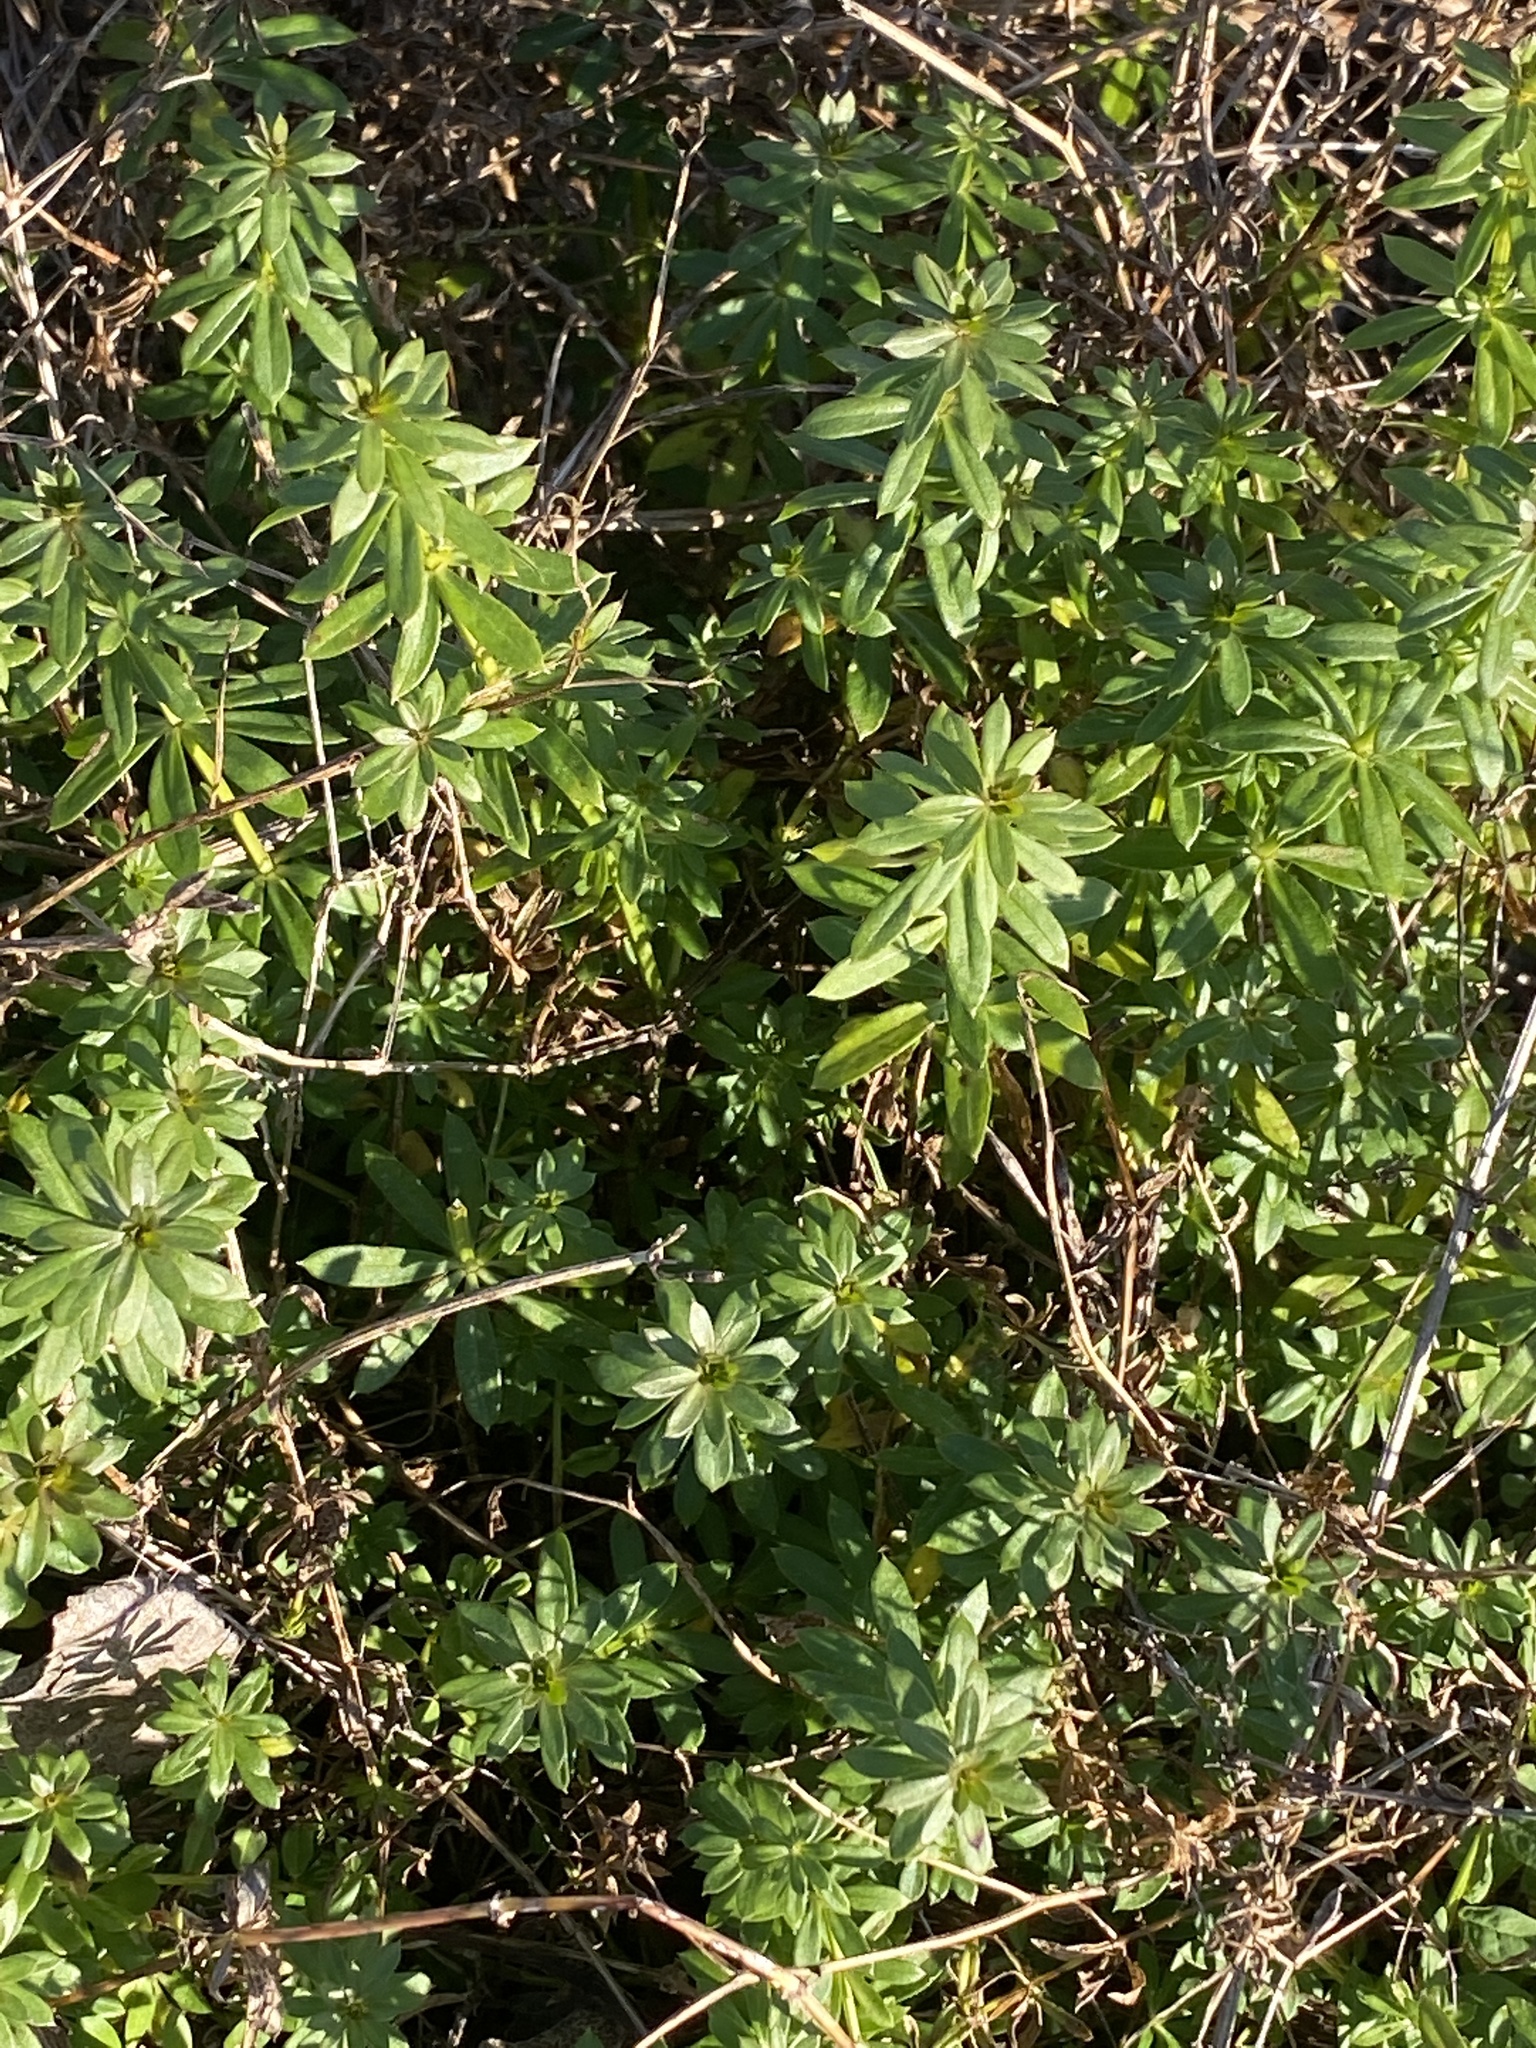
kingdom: Plantae
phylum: Tracheophyta
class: Magnoliopsida
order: Gentianales
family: Rubiaceae
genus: Galium
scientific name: Galium mollugo
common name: Hedge bedstraw
